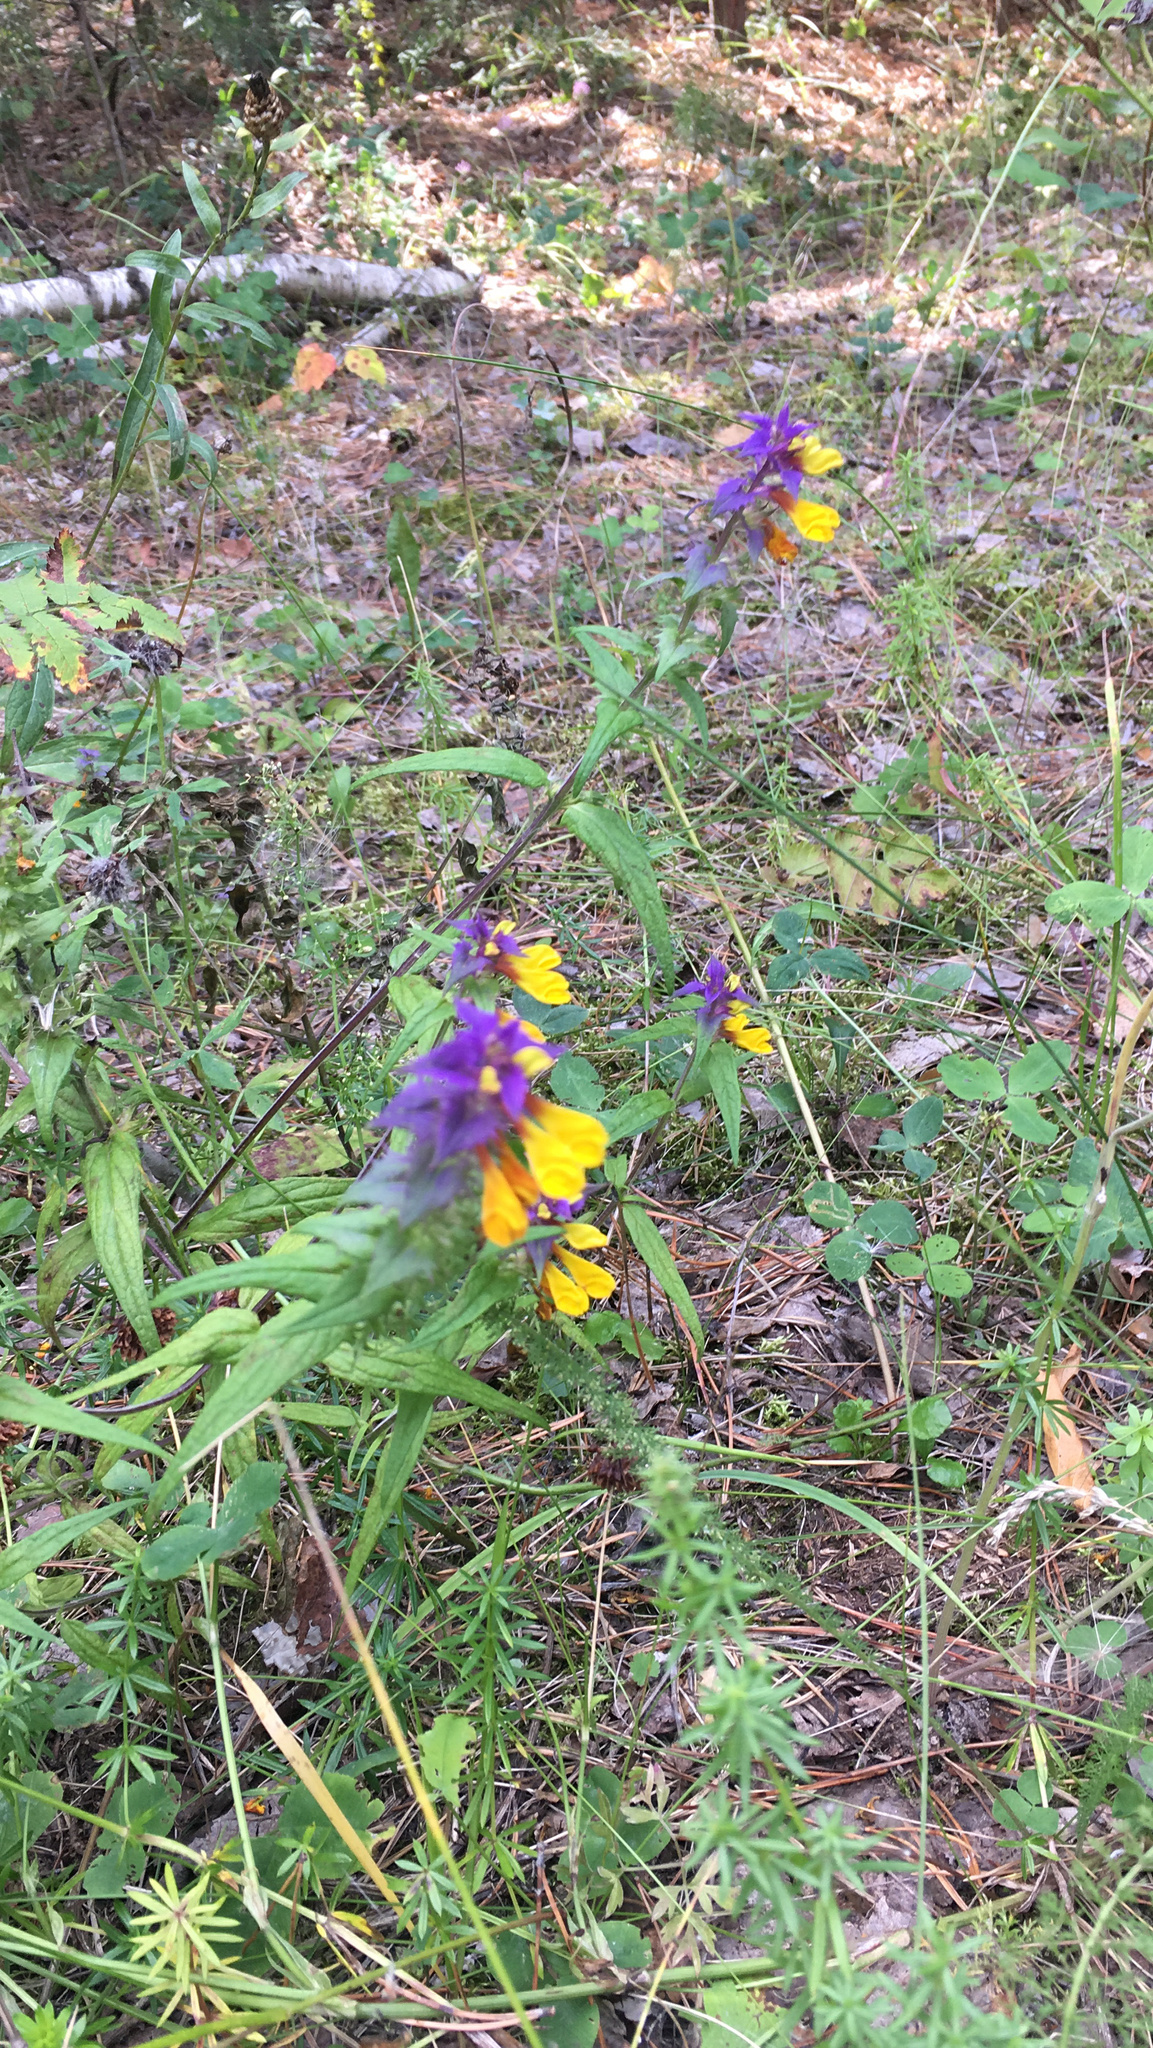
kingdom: Plantae
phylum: Tracheophyta
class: Magnoliopsida
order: Lamiales
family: Orobanchaceae
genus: Melampyrum
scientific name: Melampyrum nemorosum
